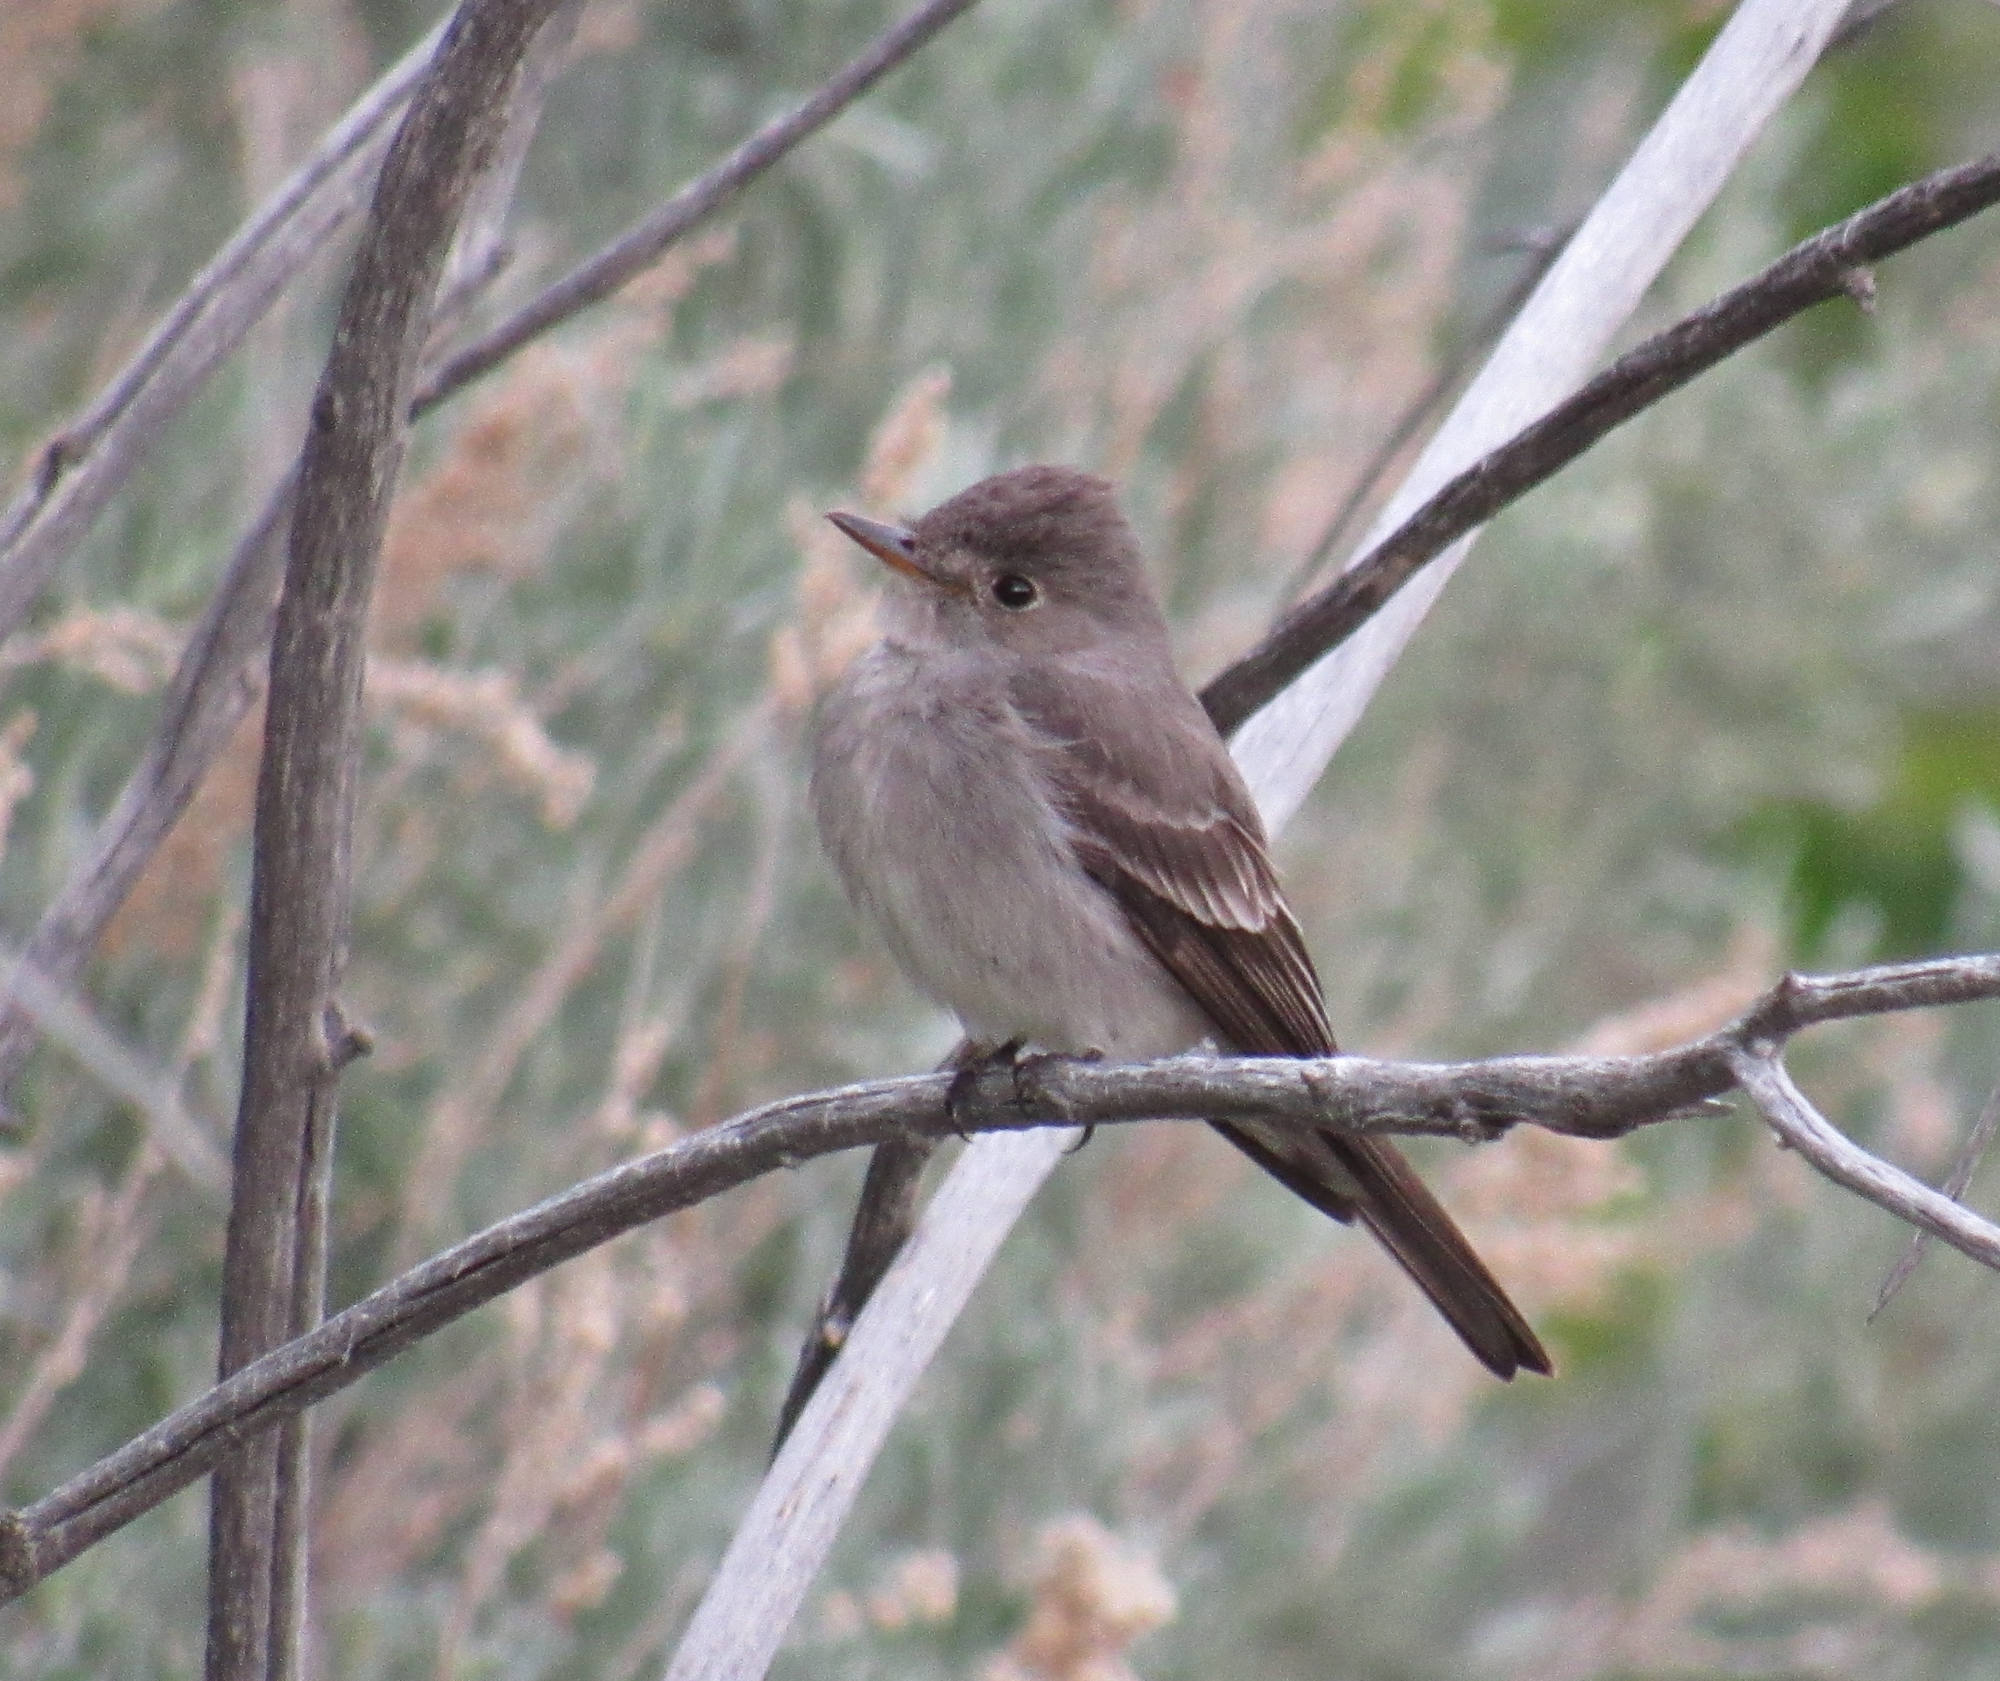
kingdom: Animalia
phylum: Chordata
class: Aves
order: Passeriformes
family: Tyrannidae
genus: Contopus
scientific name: Contopus sordidulus
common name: Western wood-pewee
